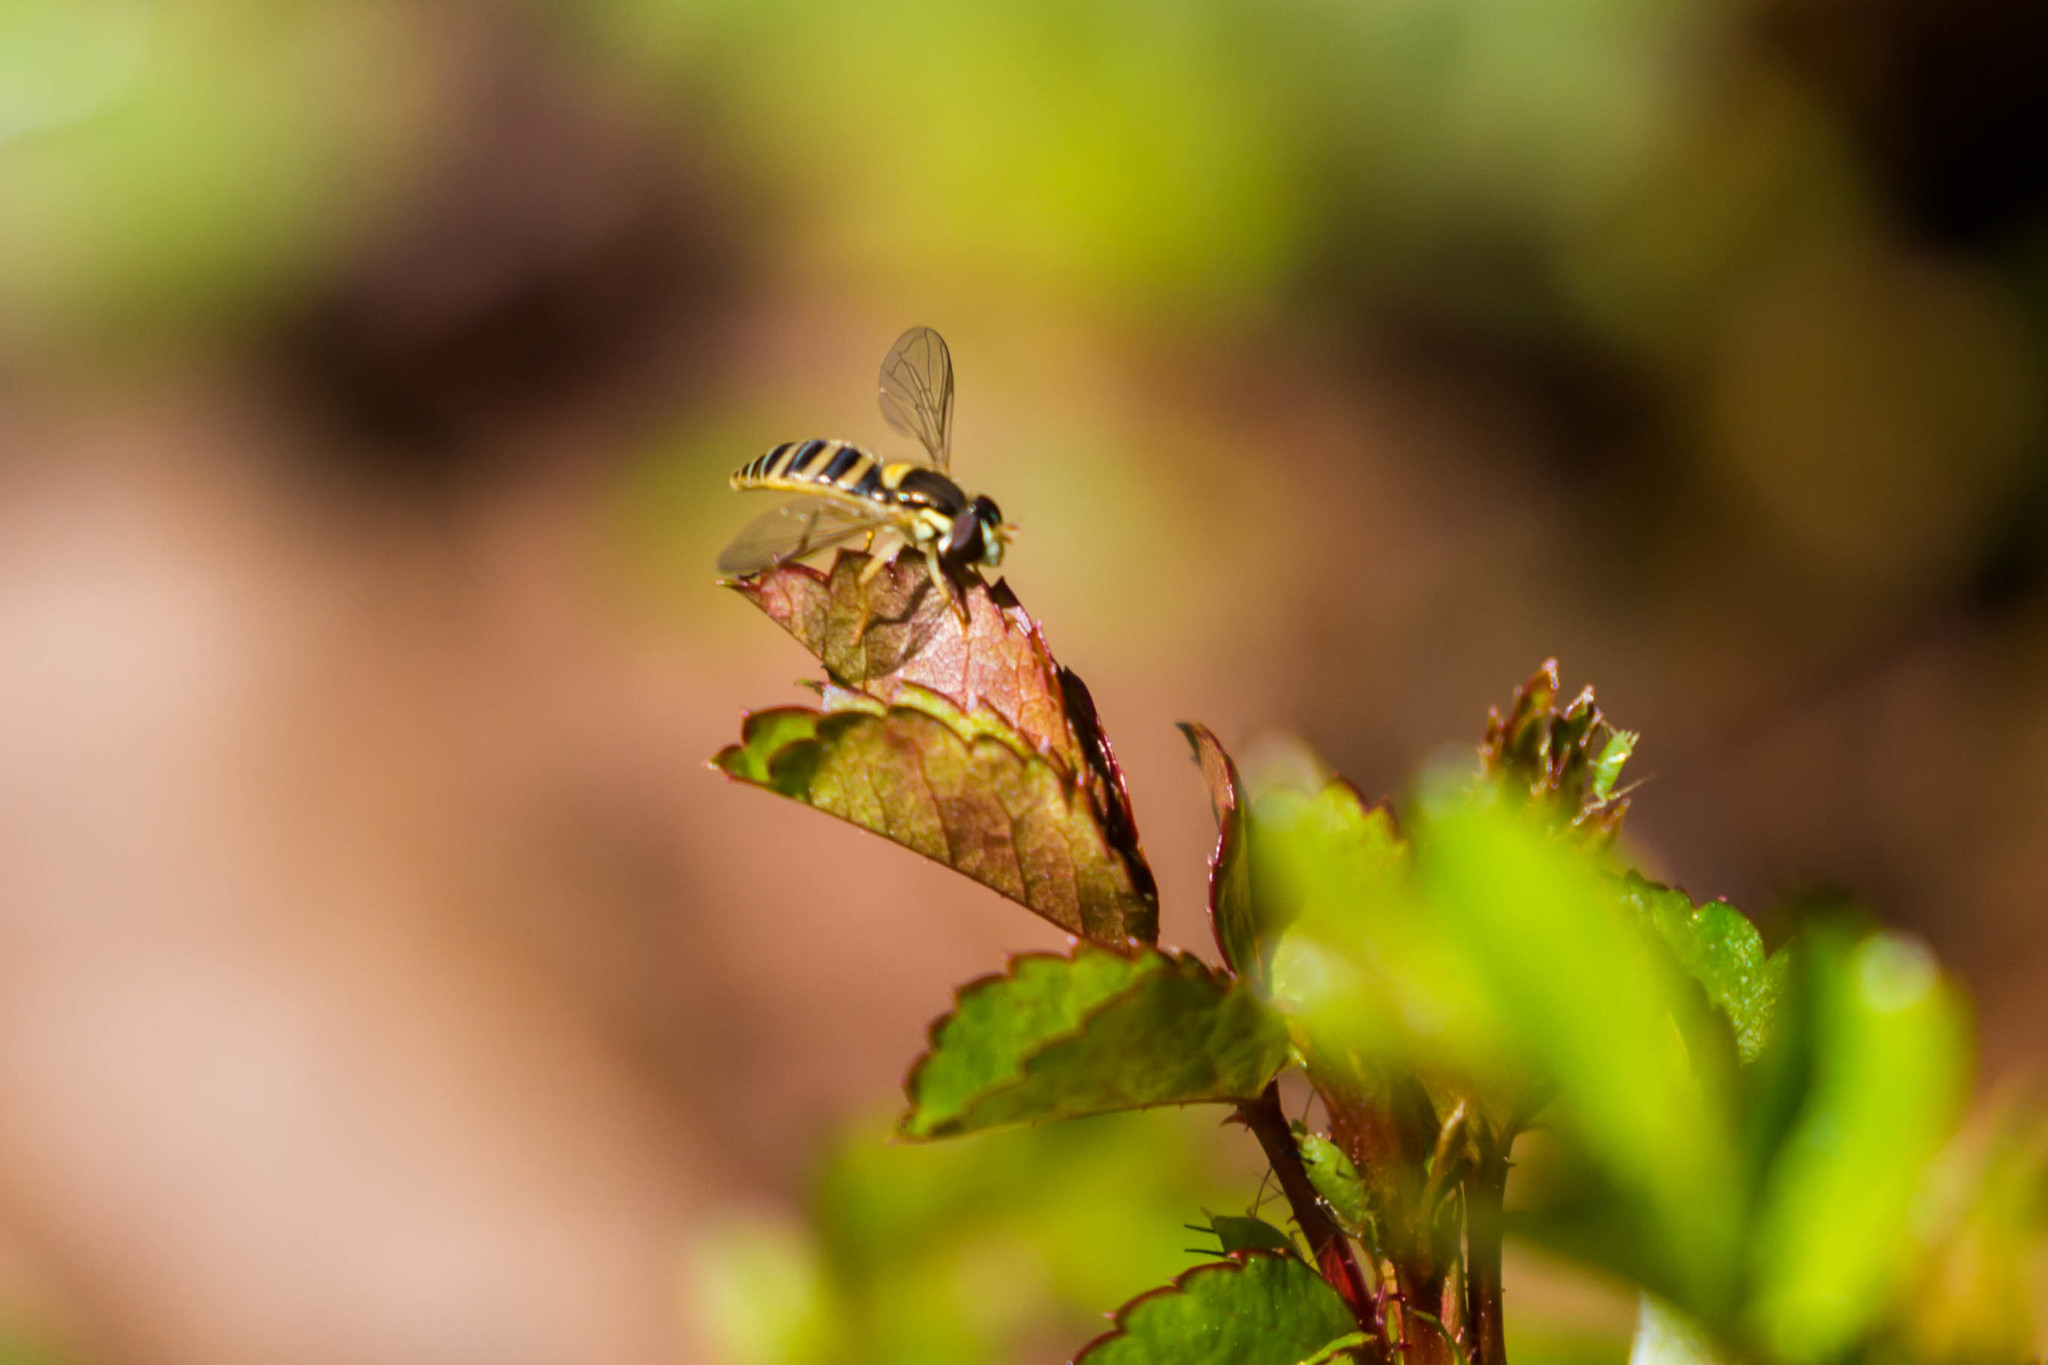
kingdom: Animalia
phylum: Arthropoda
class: Insecta
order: Diptera
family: Syrphidae
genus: Sphaerophoria
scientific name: Sphaerophoria contigua
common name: Tufted globetail
